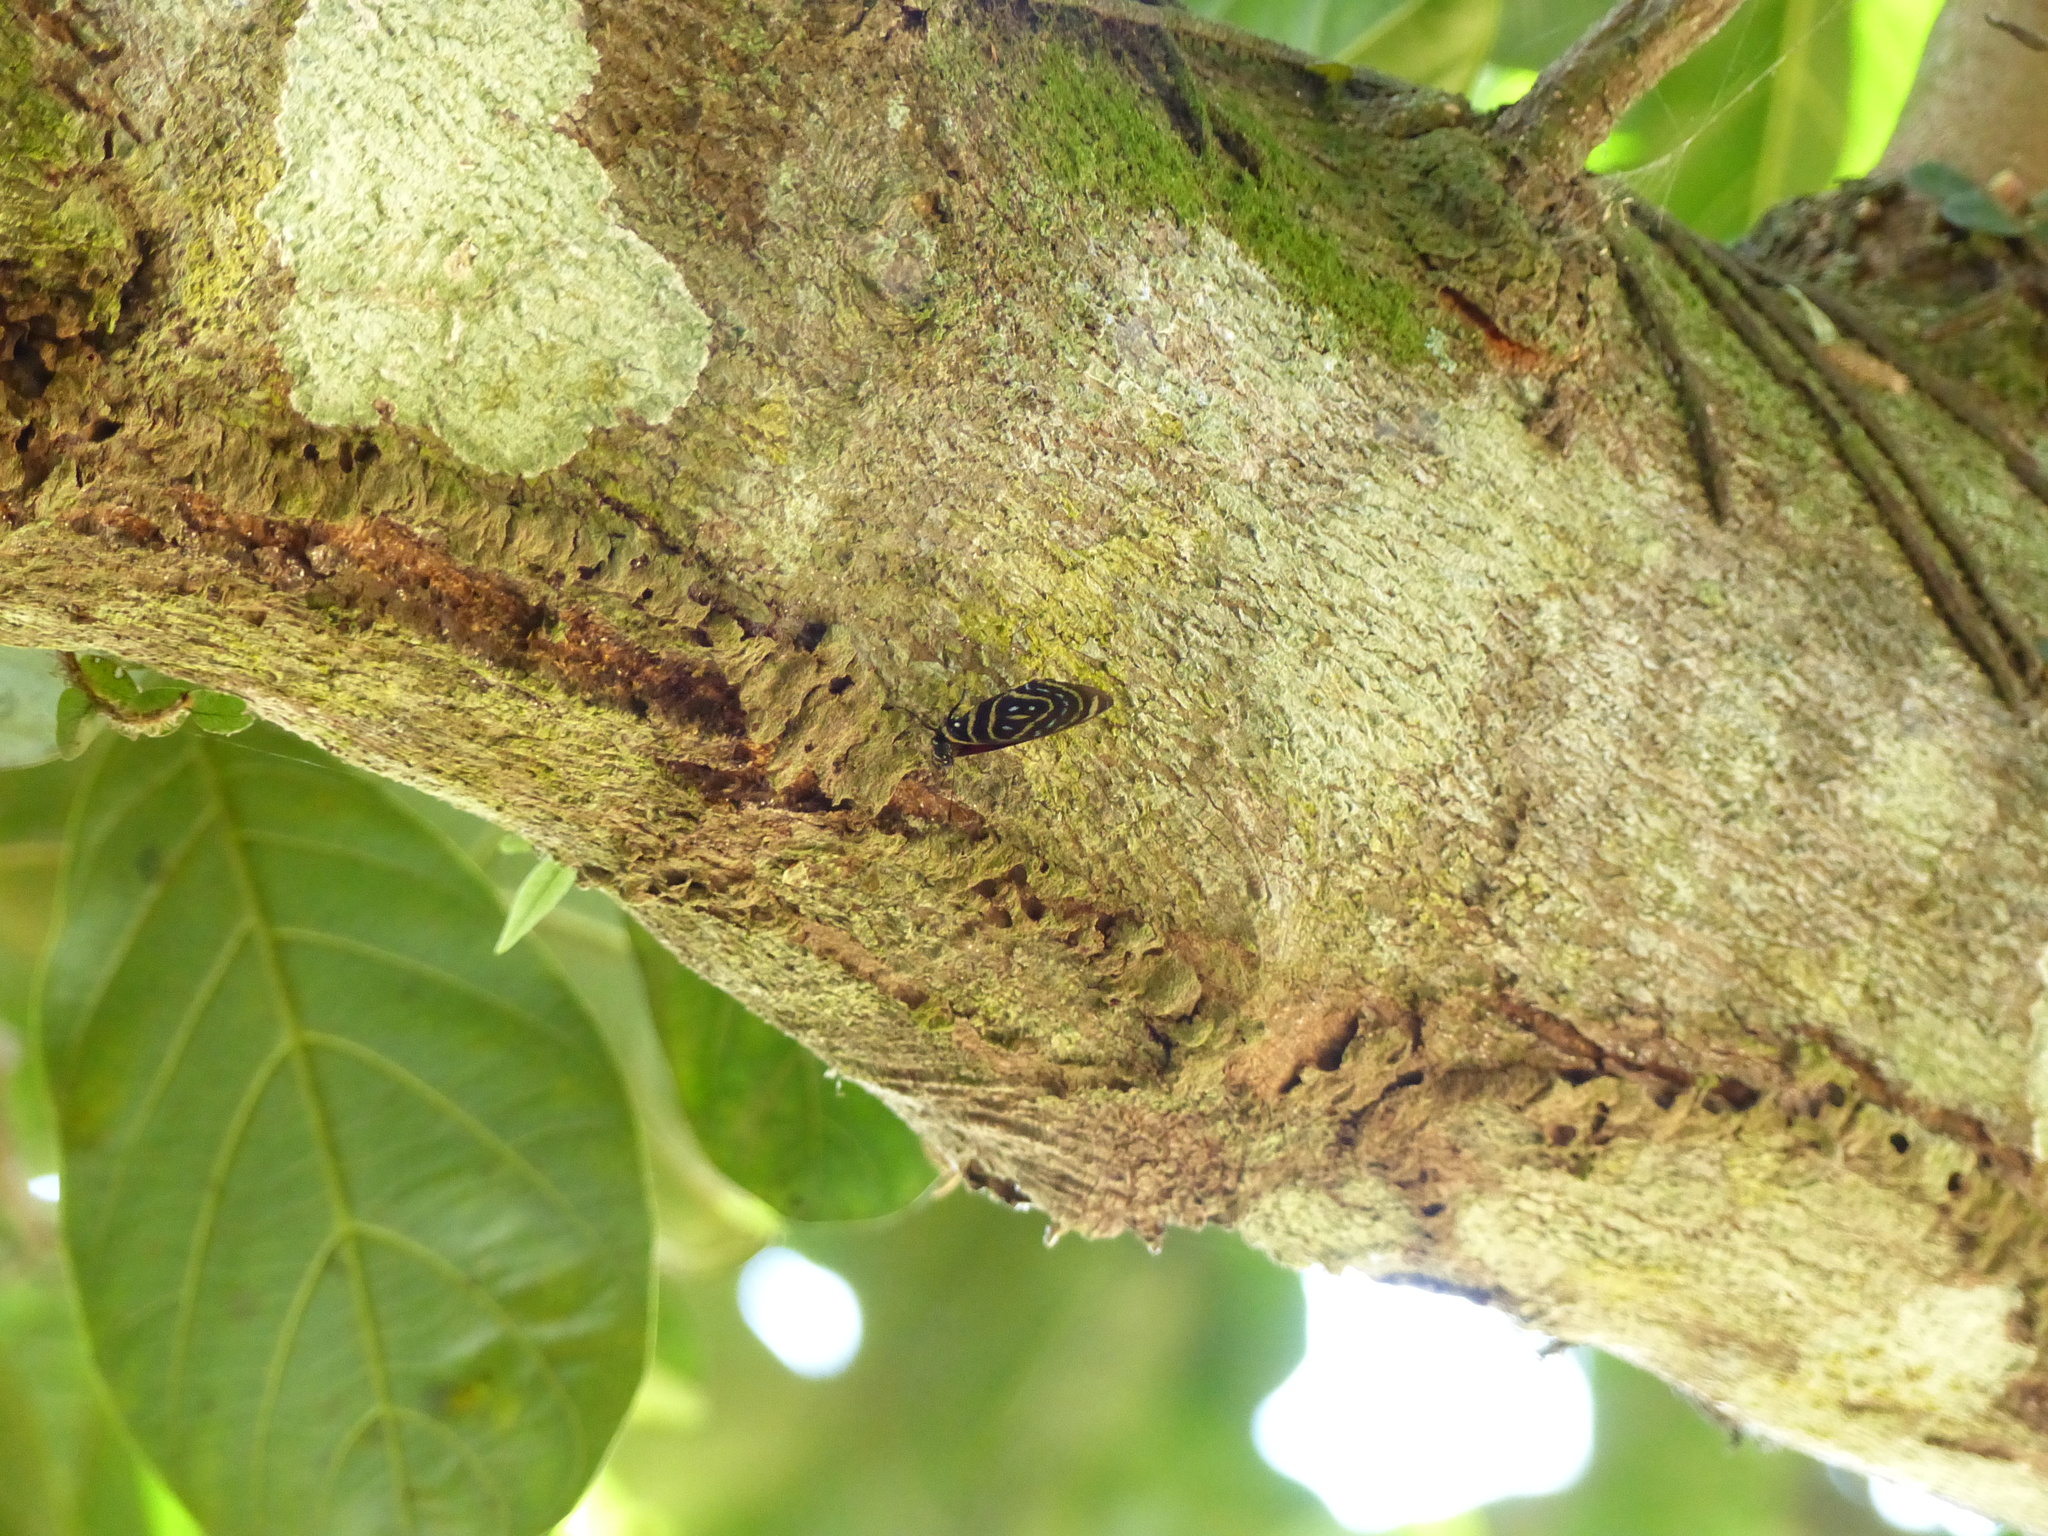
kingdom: Animalia
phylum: Arthropoda
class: Insecta
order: Lepidoptera
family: Nymphalidae
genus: Catagramma
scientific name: Catagramma astarte
